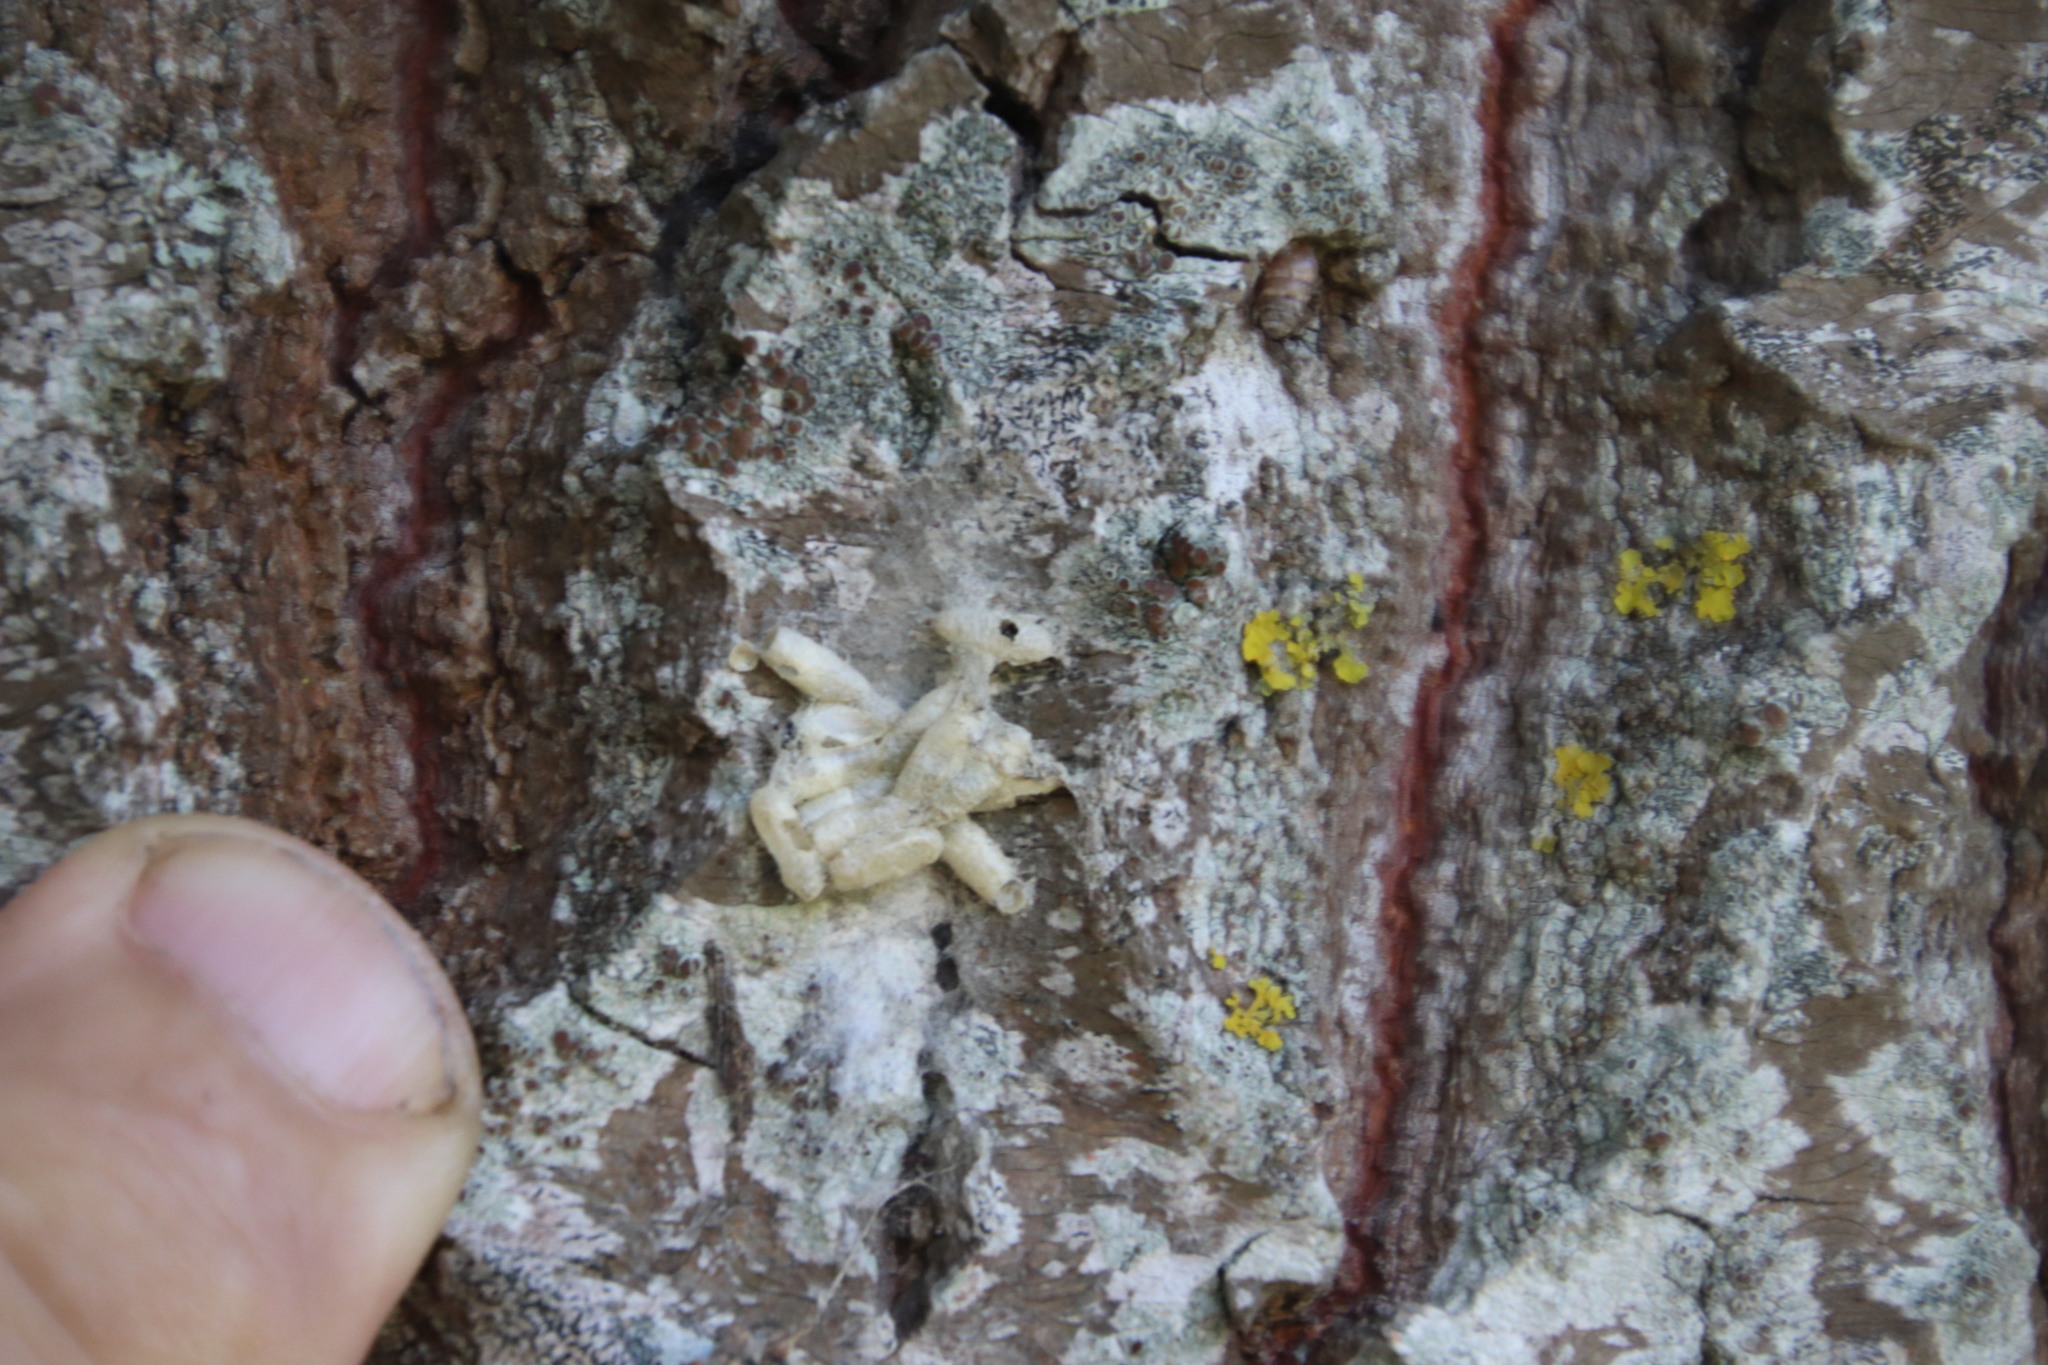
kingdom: Fungi
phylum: Ascomycota
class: Lecanoromycetes
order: Teloschistales
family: Teloschistaceae
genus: Xanthoria
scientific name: Xanthoria parietina
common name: Common orange lichen
